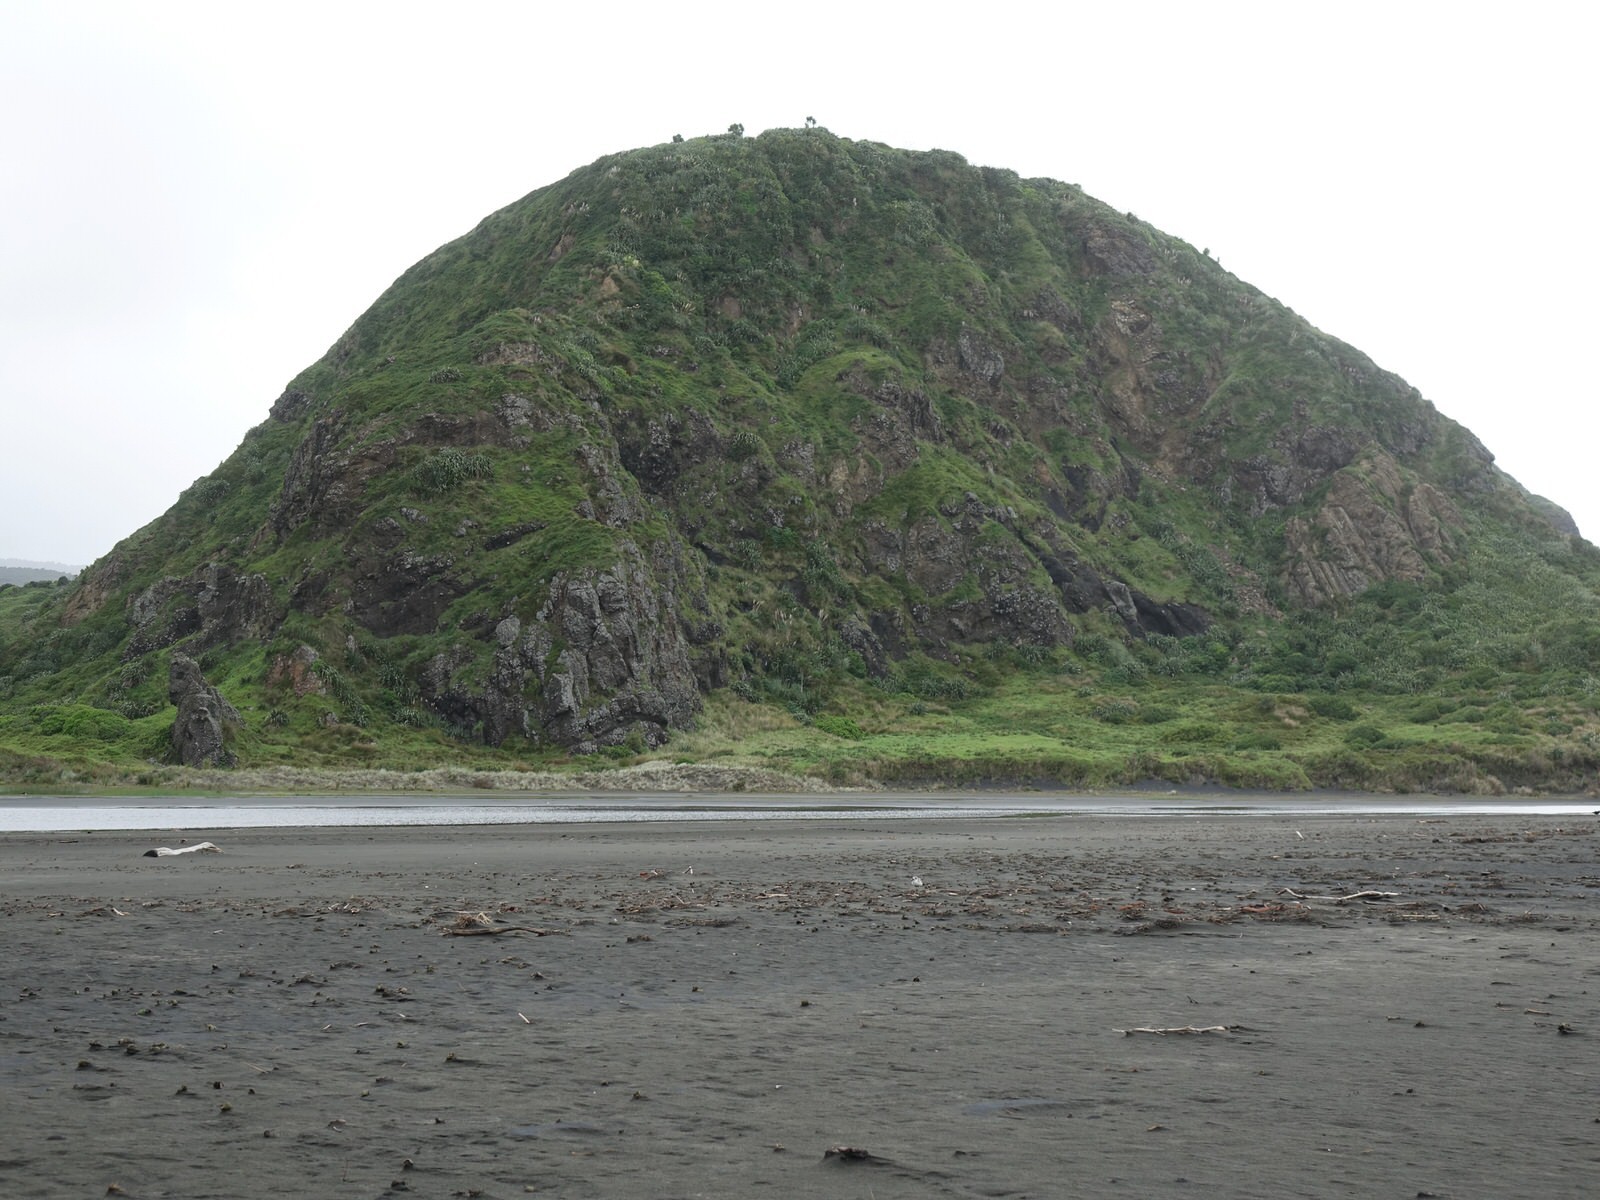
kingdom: Animalia
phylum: Chordata
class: Aves
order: Charadriiformes
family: Charadriidae
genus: Anarhynchus
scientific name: Anarhynchus
